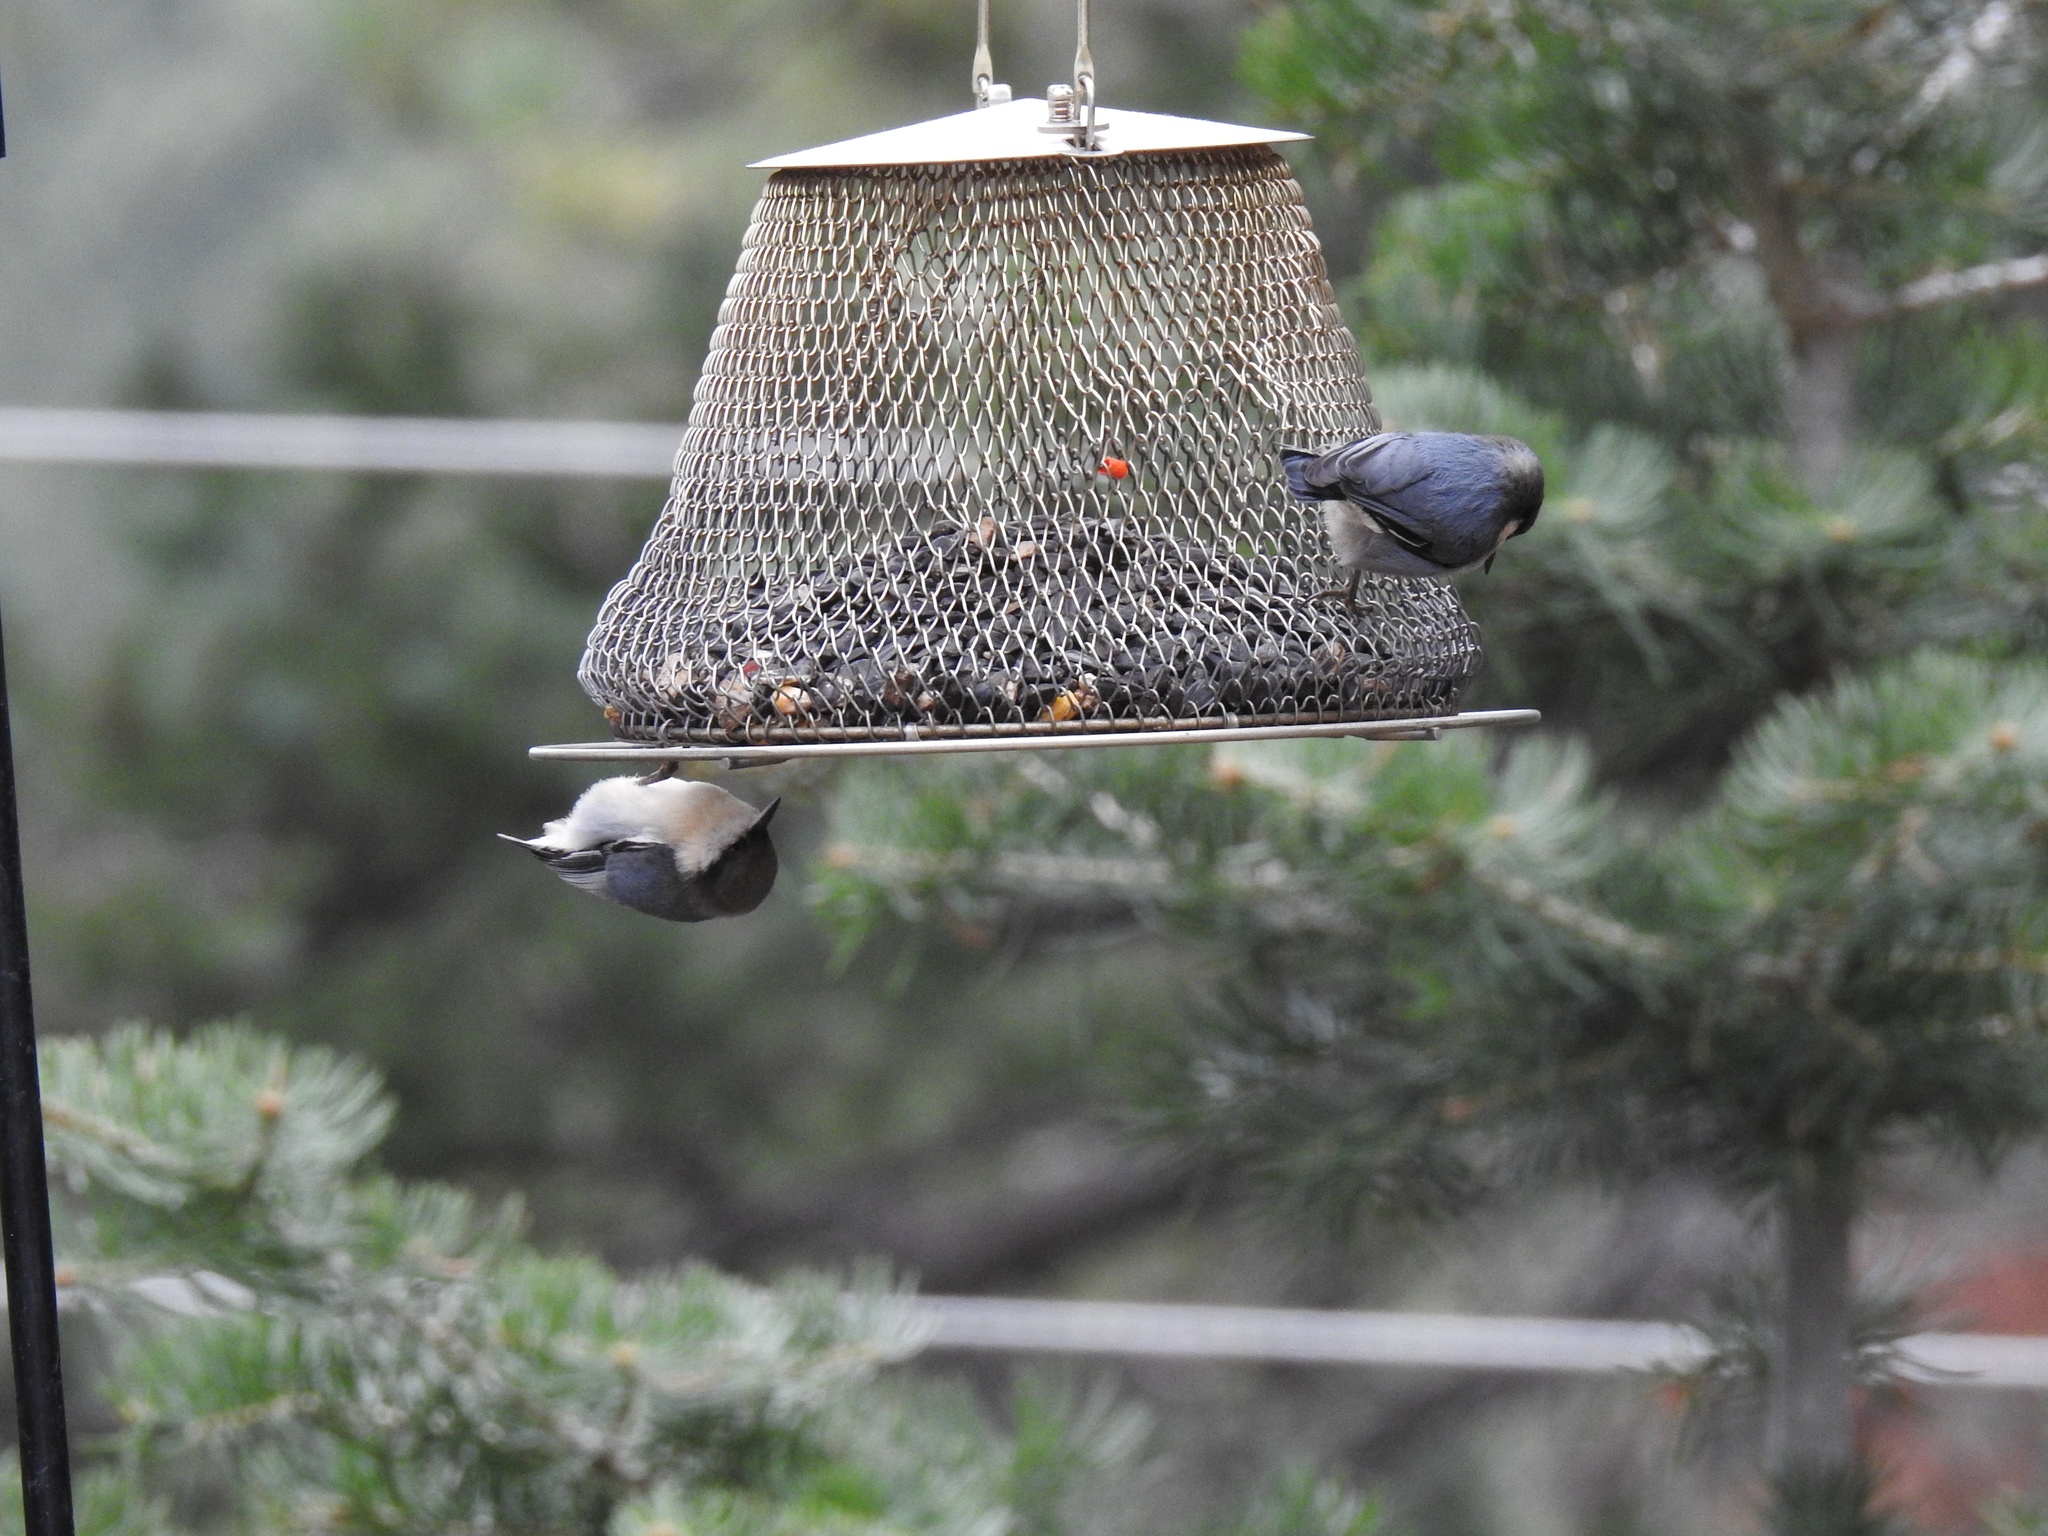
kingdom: Animalia
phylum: Chordata
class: Aves
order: Passeriformes
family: Sittidae
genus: Sitta
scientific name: Sitta pygmaea
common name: Pygmy nuthatch
